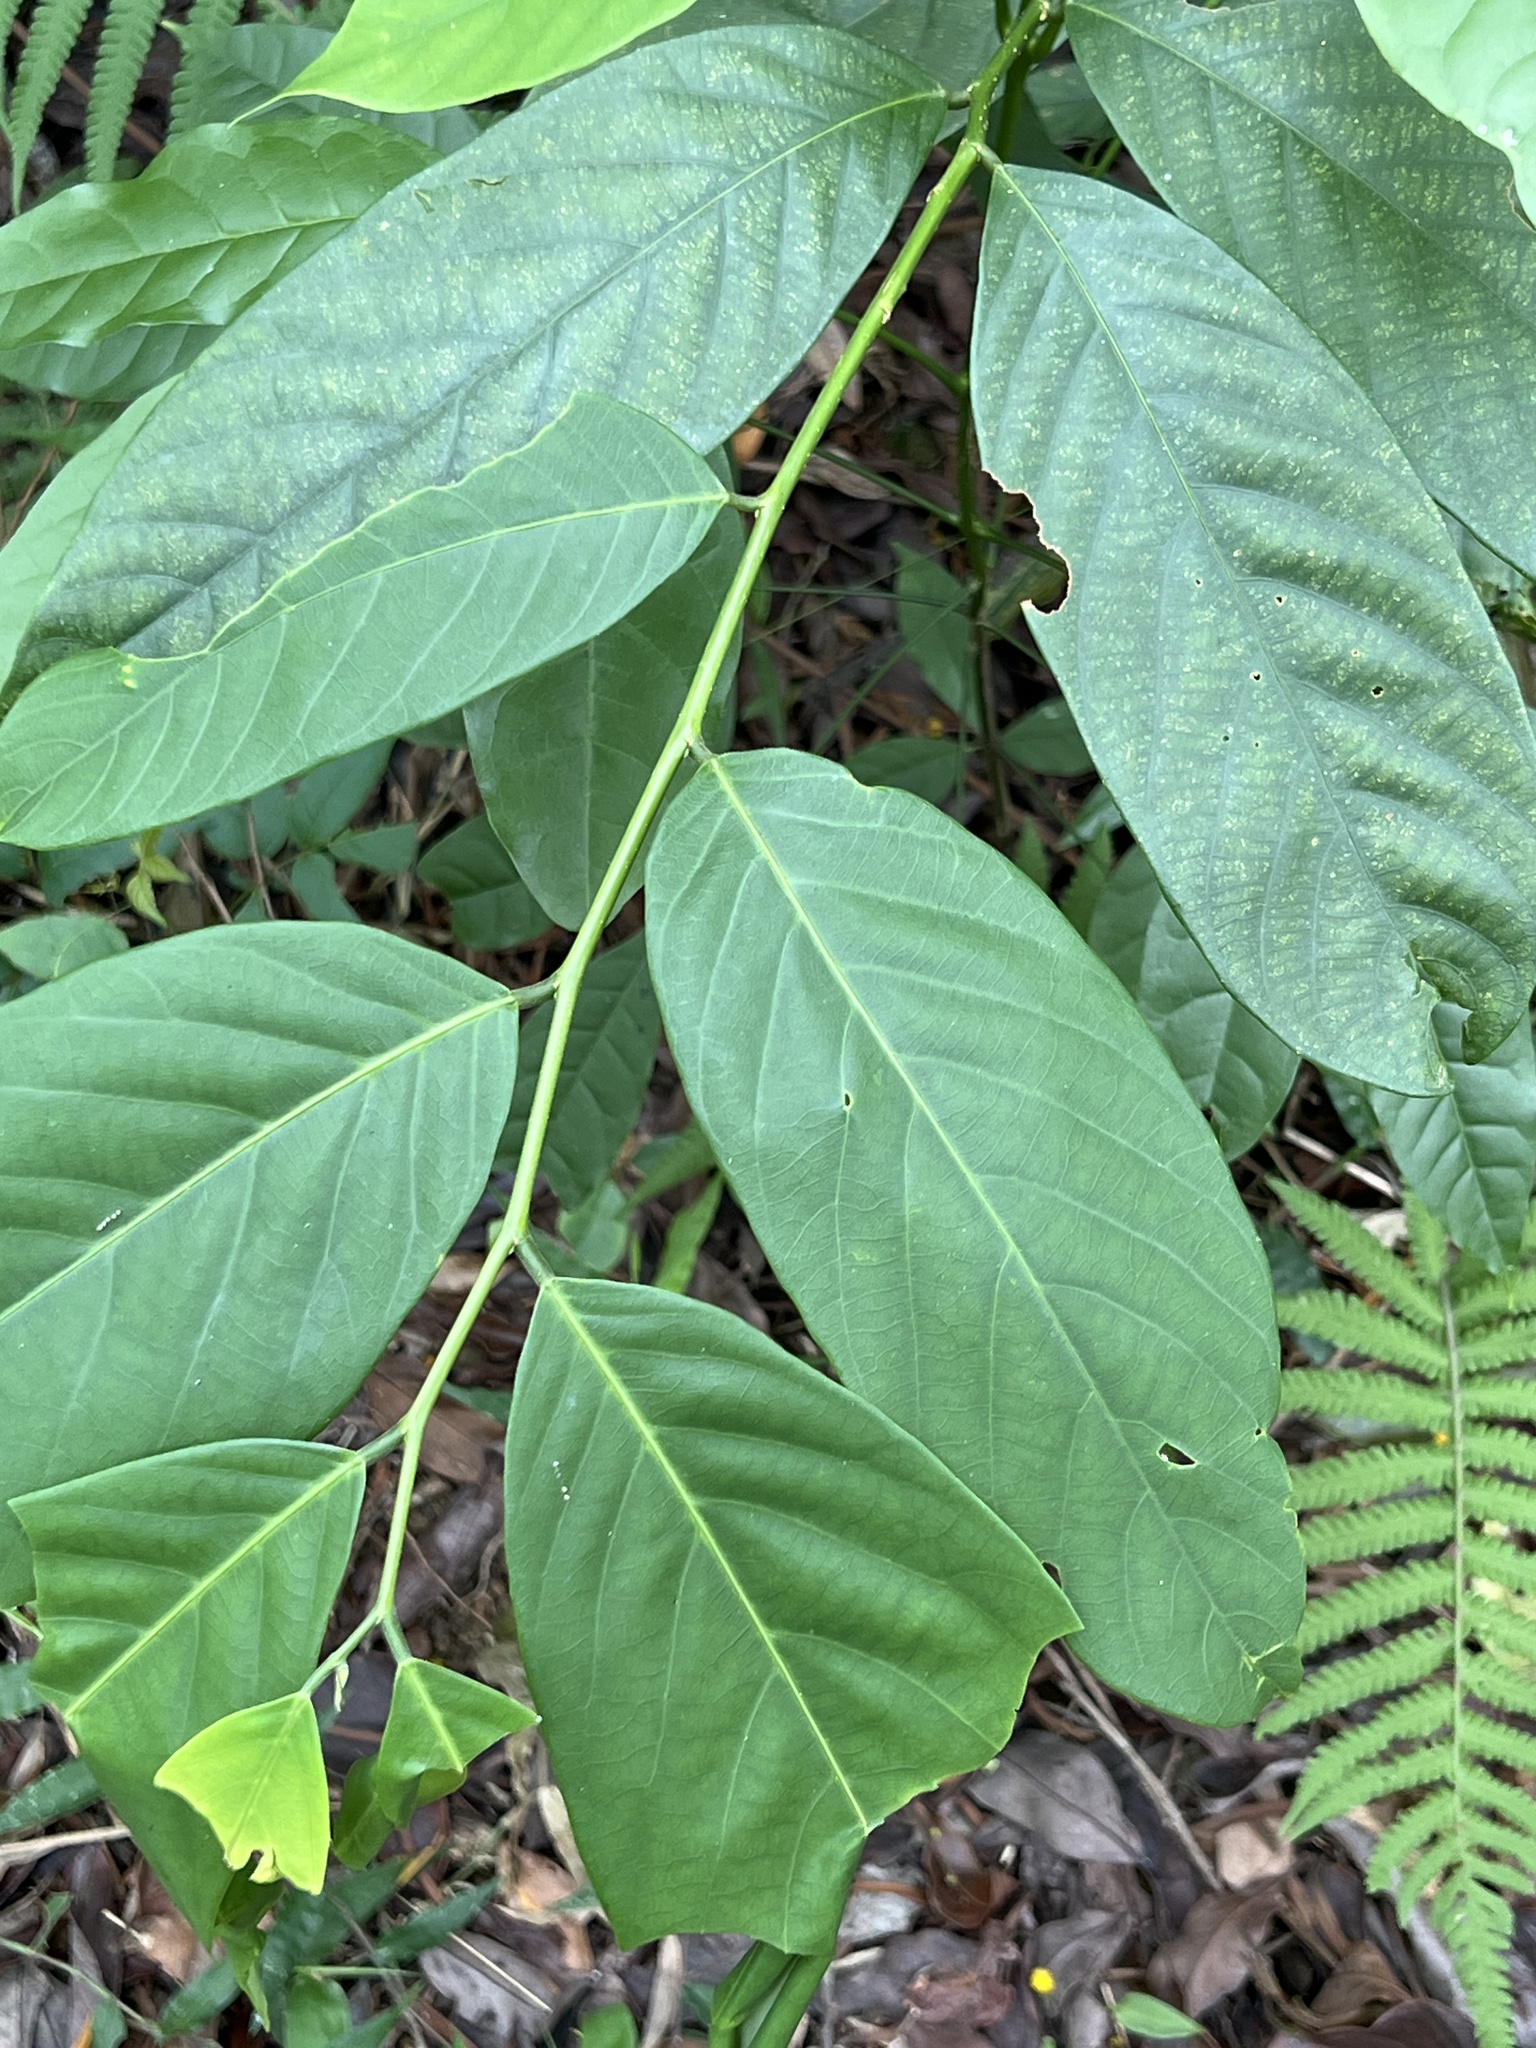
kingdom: Plantae
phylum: Tracheophyta
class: Magnoliopsida
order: Malpighiales
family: Phyllanthaceae
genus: Bridelia
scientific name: Bridelia balansae
